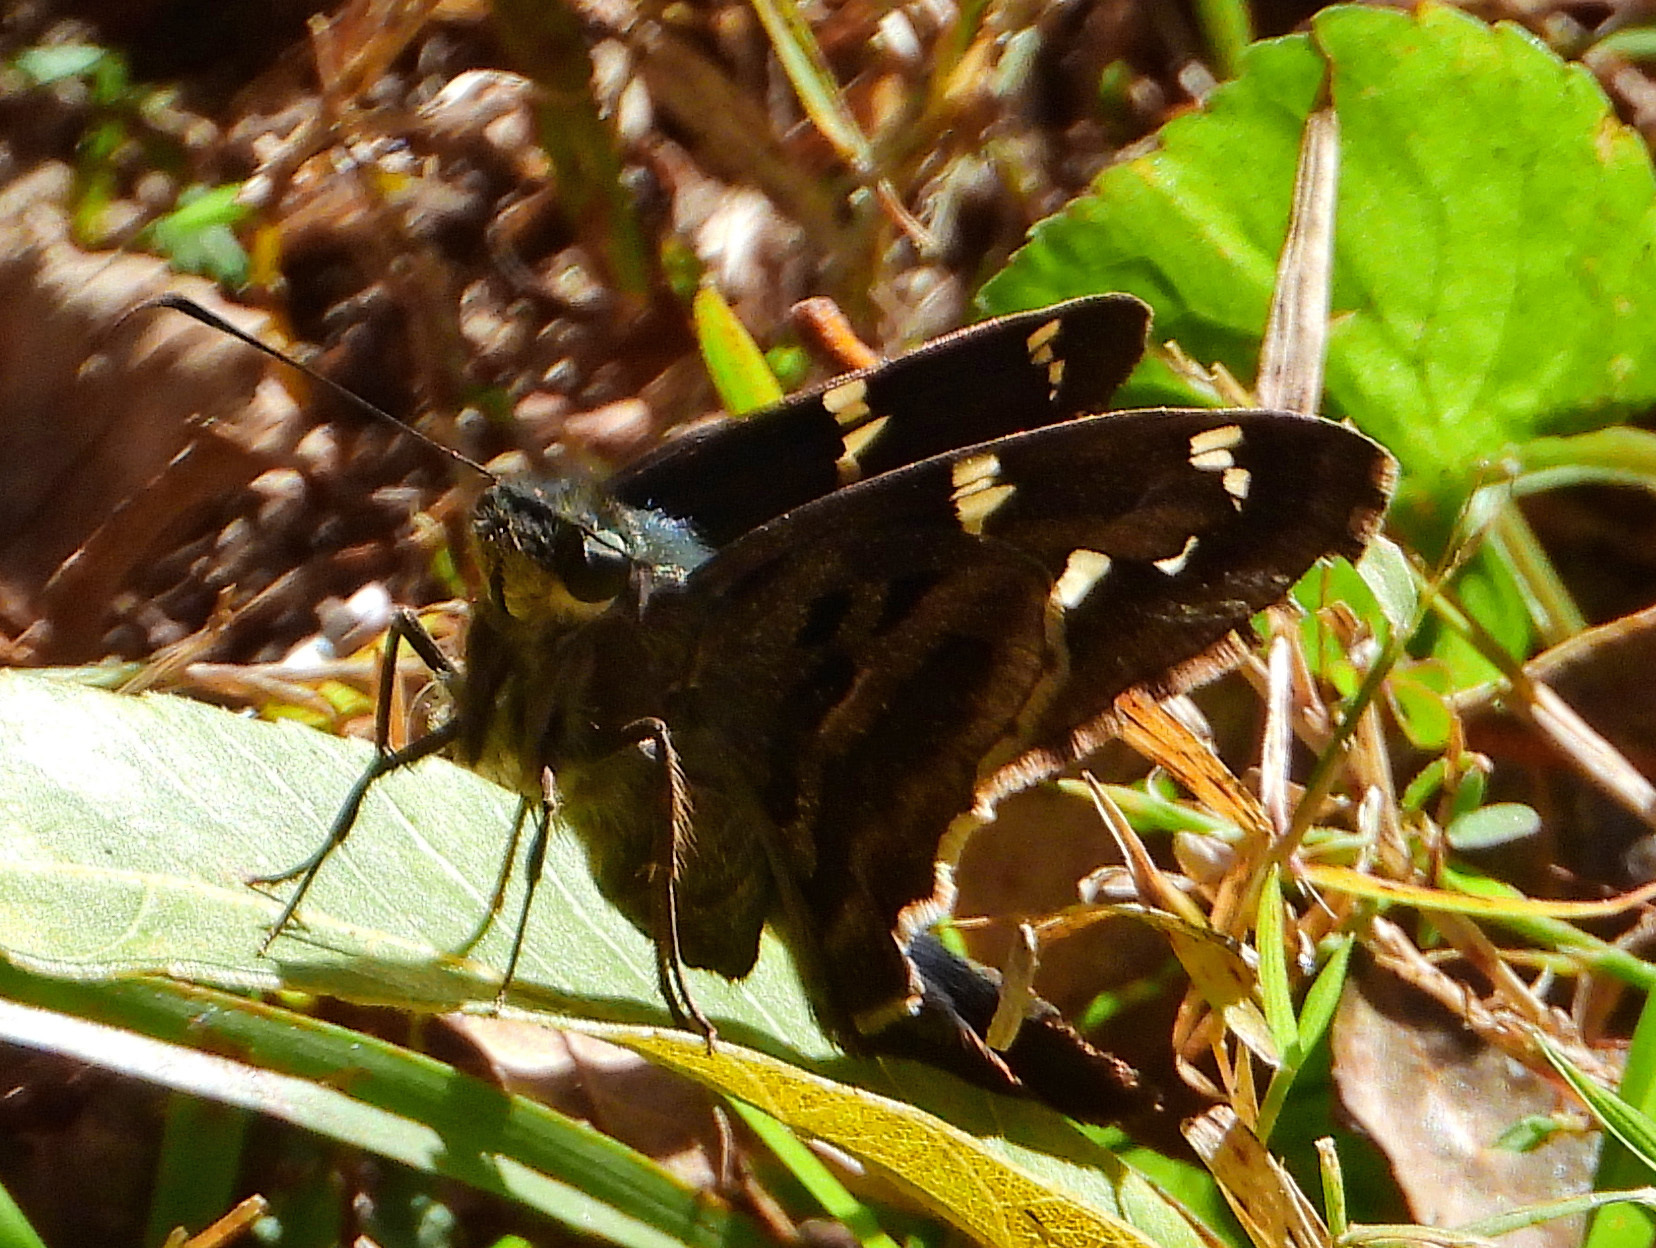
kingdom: Animalia
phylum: Arthropoda
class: Insecta
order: Lepidoptera
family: Hesperiidae
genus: Urbanus
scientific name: Urbanus proteus
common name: Long-tailed skipper
